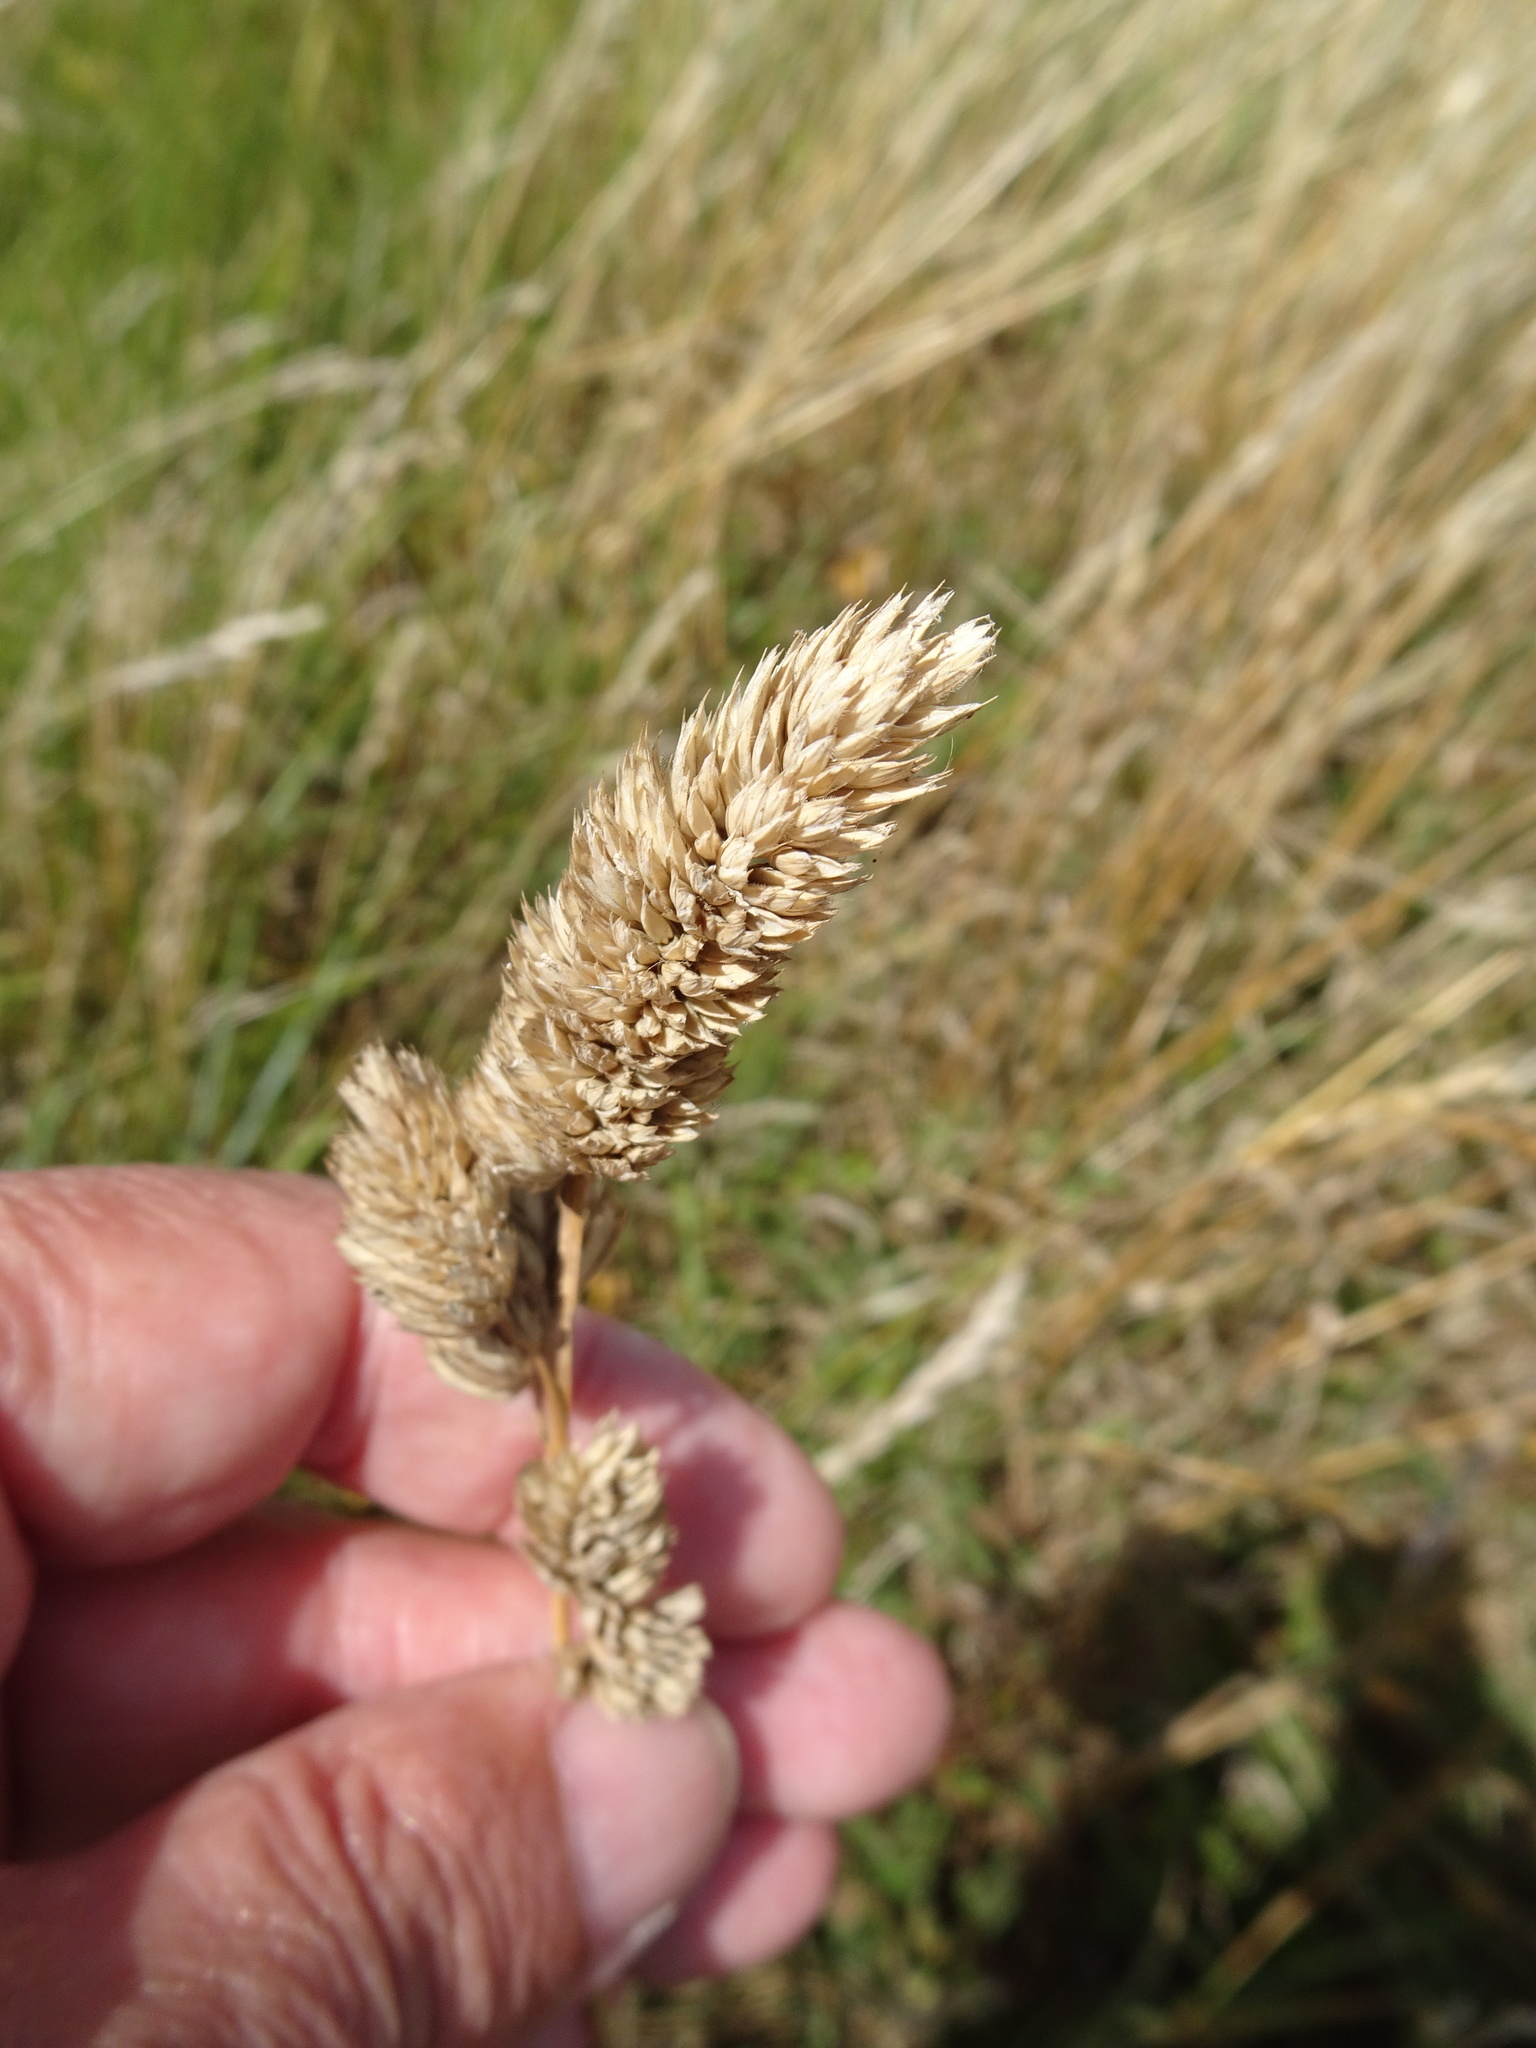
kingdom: Plantae
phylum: Tracheophyta
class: Liliopsida
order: Poales
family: Poaceae
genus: Dactylis
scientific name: Dactylis glomerata
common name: Orchardgrass
